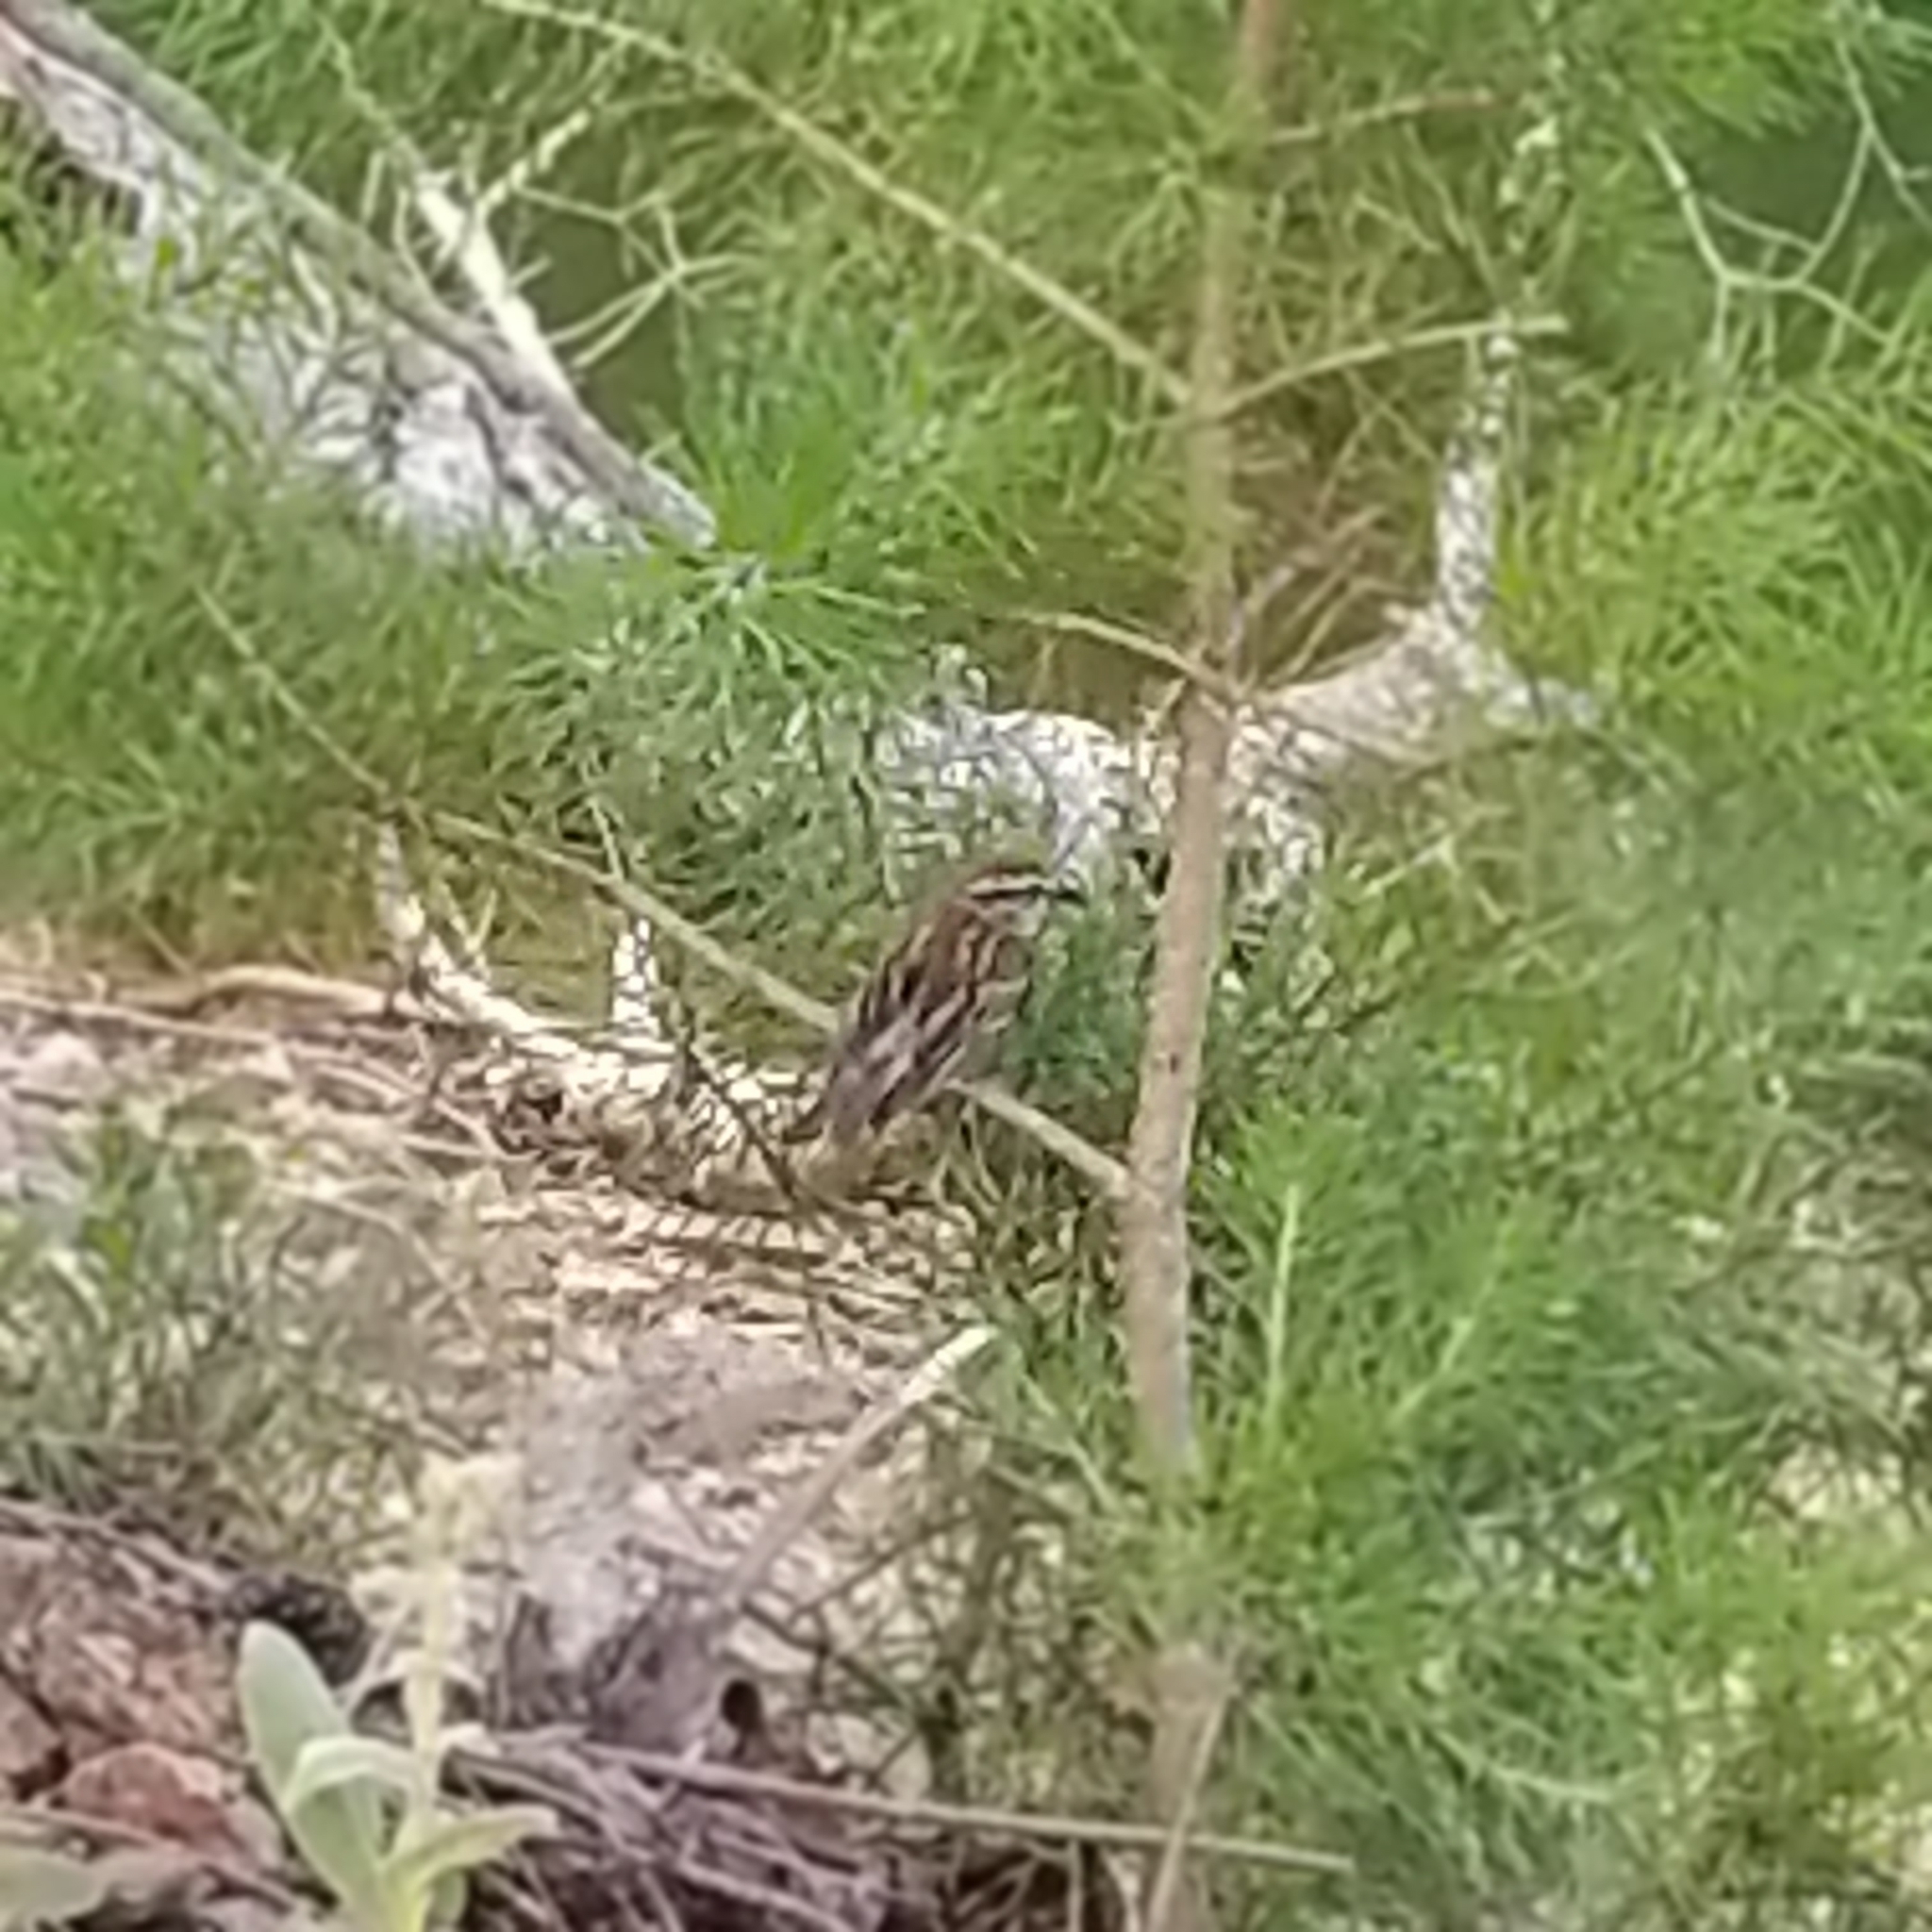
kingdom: Animalia
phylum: Chordata
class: Aves
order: Passeriformes
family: Passerellidae
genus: Spizella
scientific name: Spizella passerina
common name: Chipping sparrow
